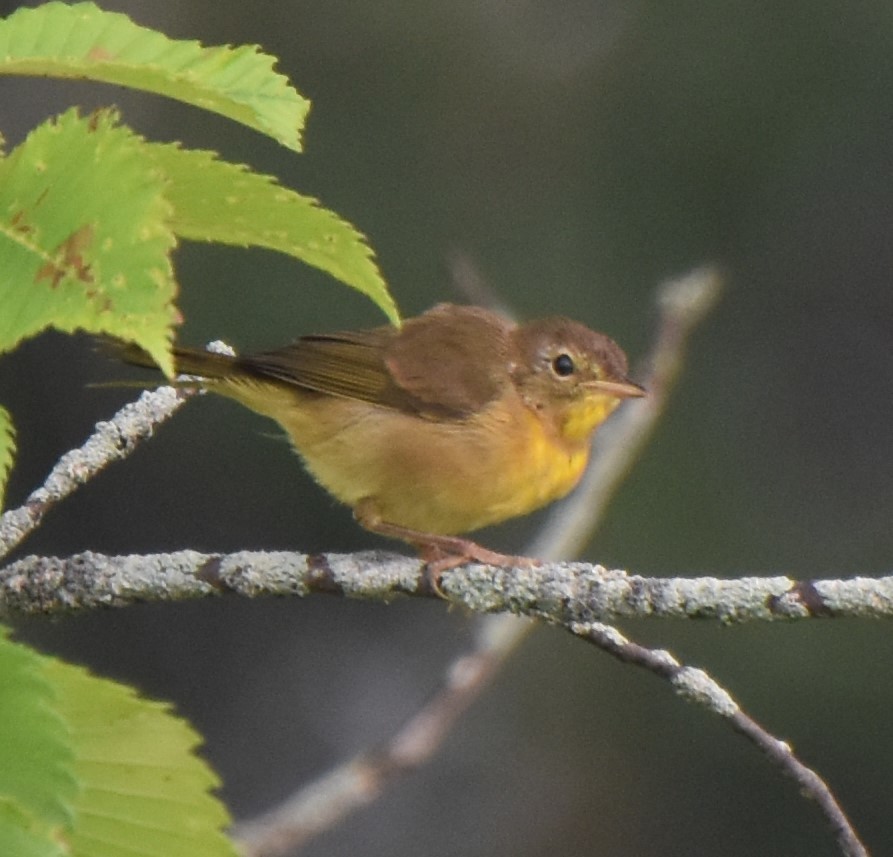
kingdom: Animalia
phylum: Chordata
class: Aves
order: Passeriformes
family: Parulidae
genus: Geothlypis
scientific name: Geothlypis trichas
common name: Common yellowthroat
